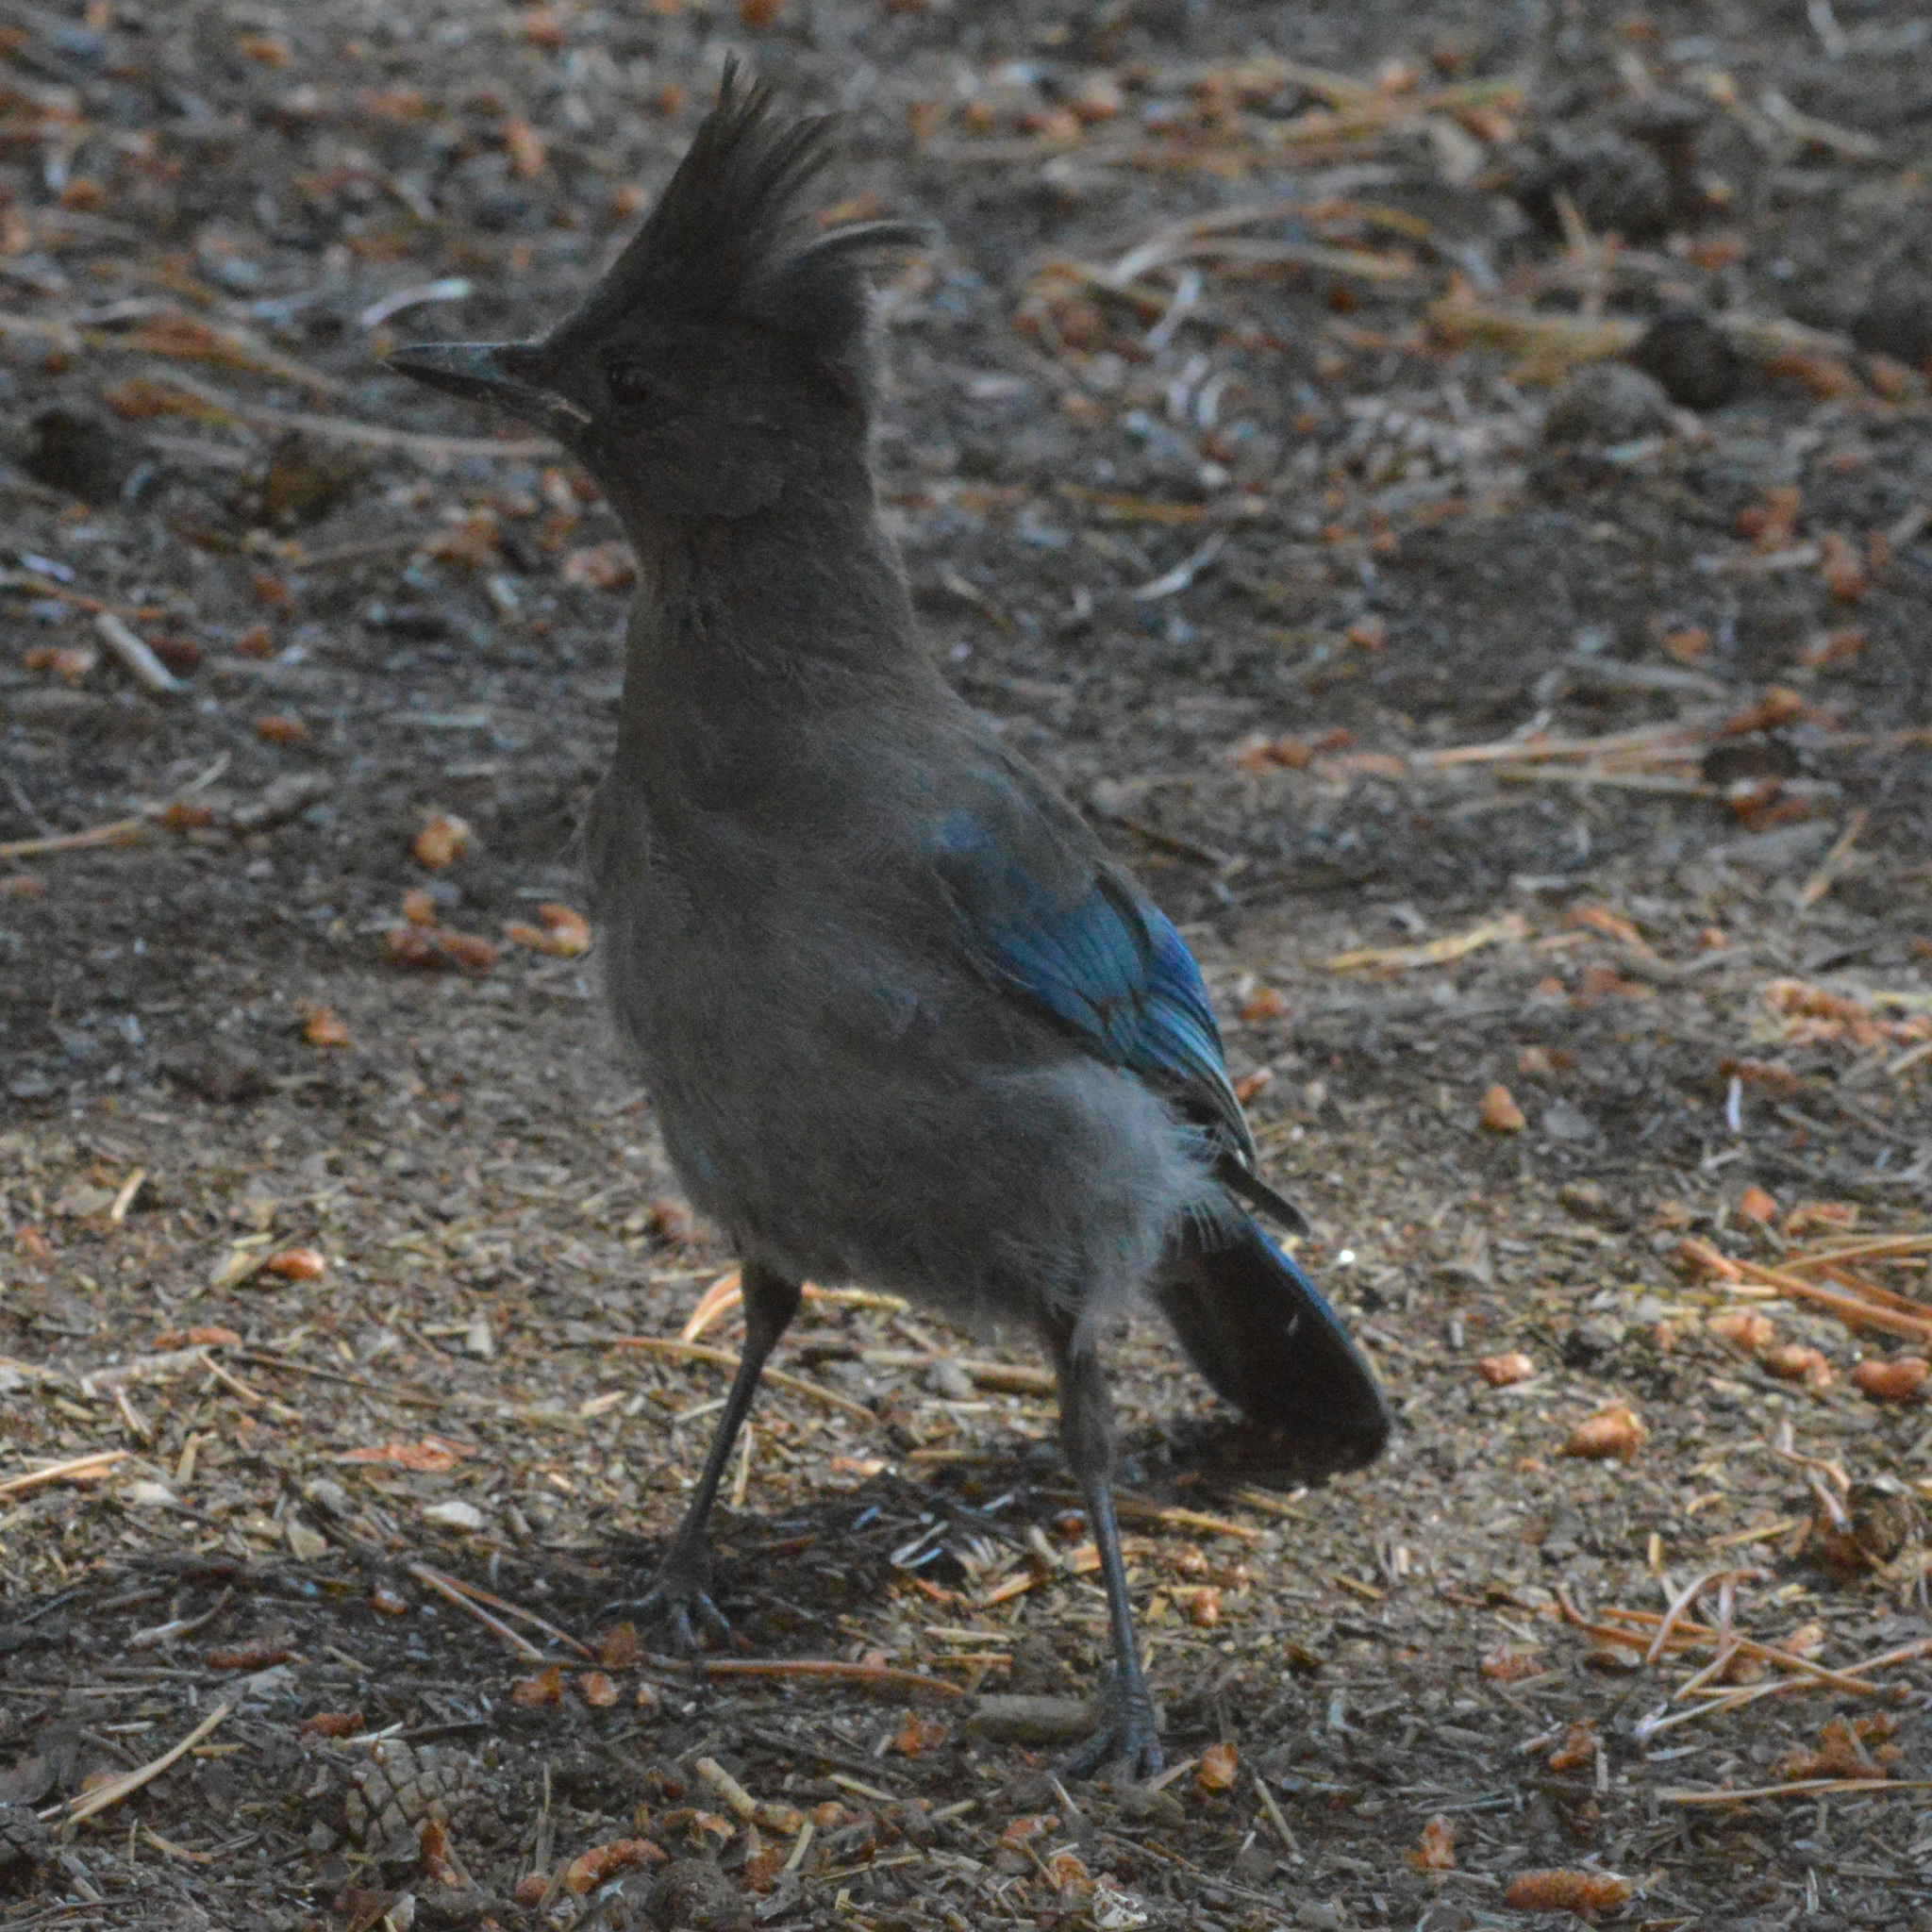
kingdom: Animalia
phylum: Chordata
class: Aves
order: Passeriformes
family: Corvidae
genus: Cyanocitta
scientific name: Cyanocitta stelleri
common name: Steller's jay
